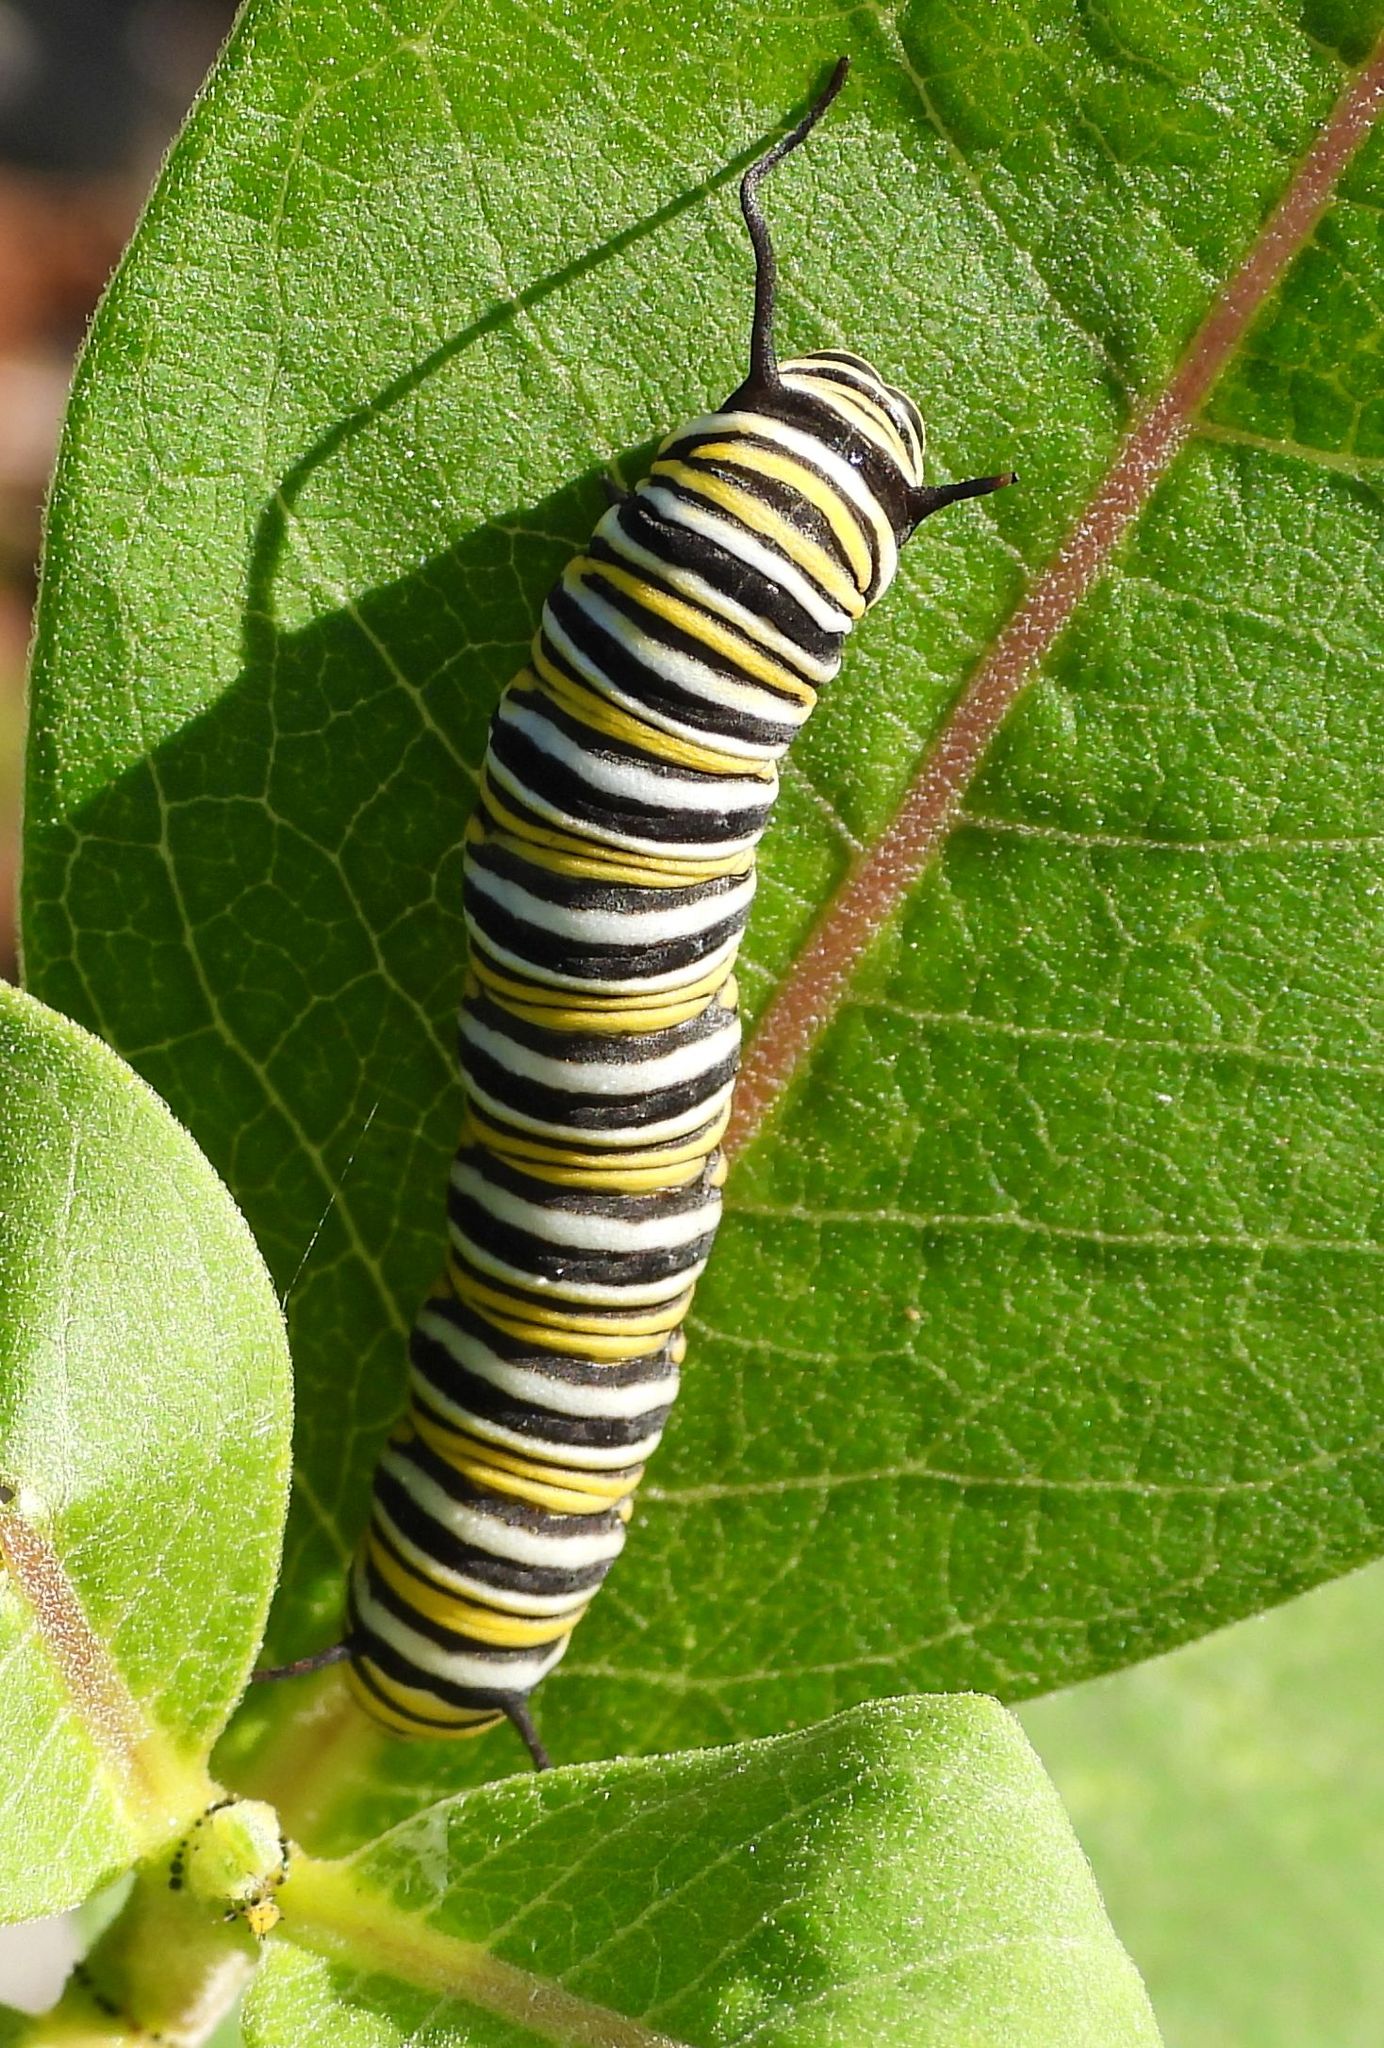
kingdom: Animalia
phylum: Arthropoda
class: Insecta
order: Lepidoptera
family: Nymphalidae
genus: Danaus
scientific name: Danaus plexippus
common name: Monarch
